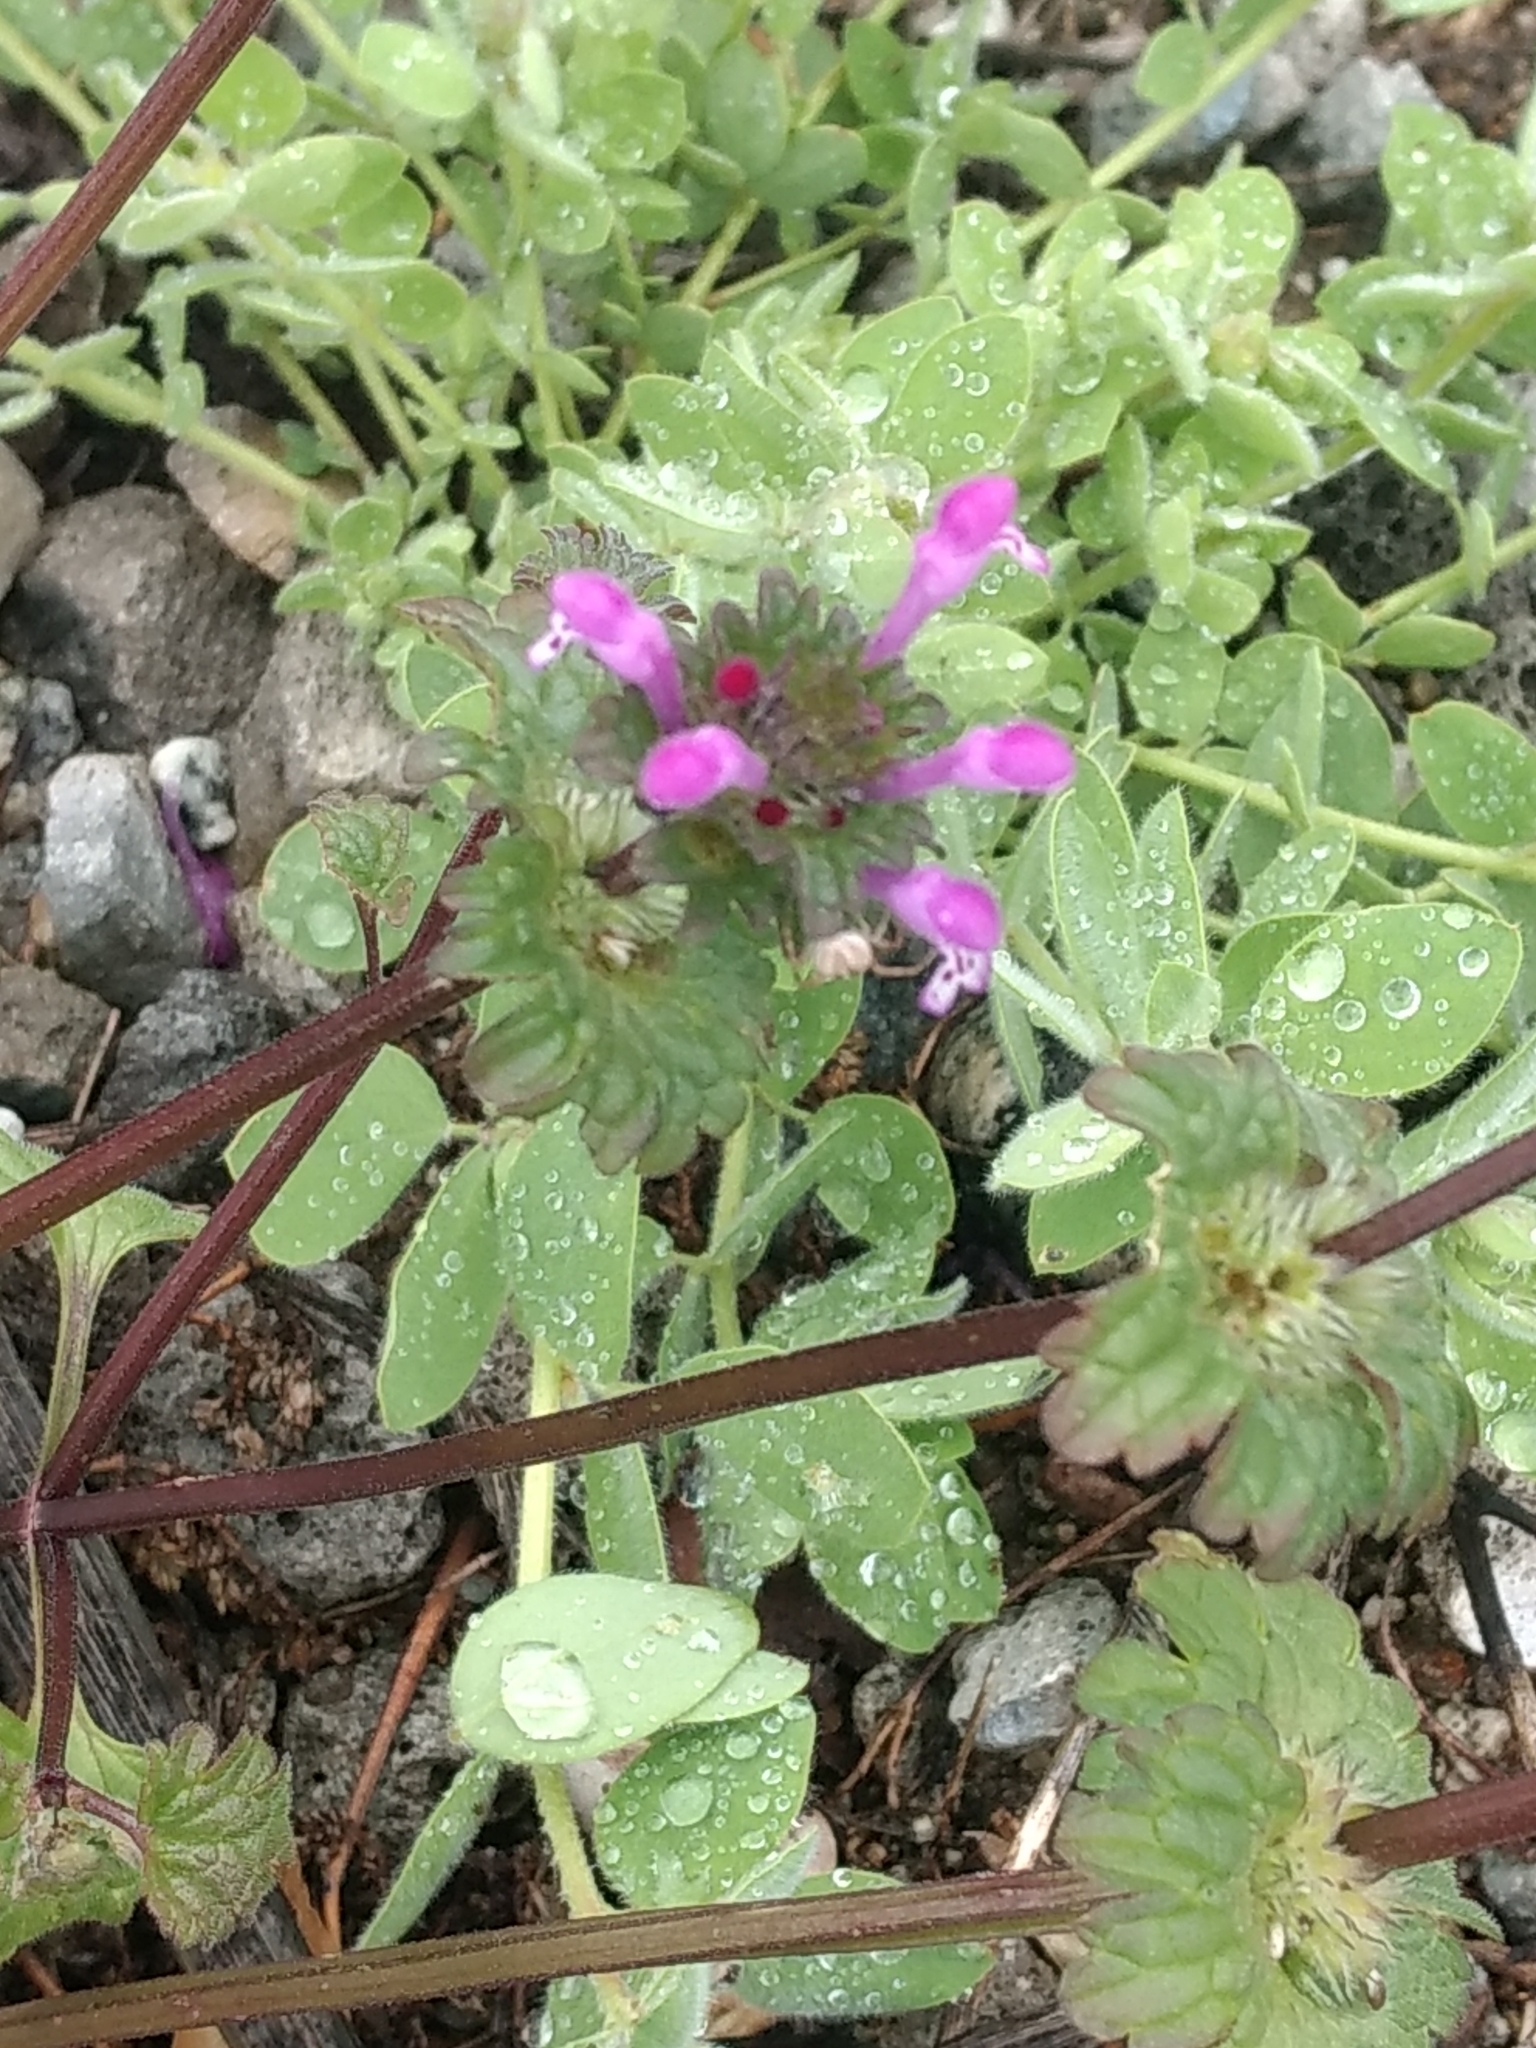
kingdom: Plantae
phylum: Tracheophyta
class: Magnoliopsida
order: Lamiales
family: Lamiaceae
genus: Lamium
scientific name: Lamium amplexicaule
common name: Henbit dead-nettle
